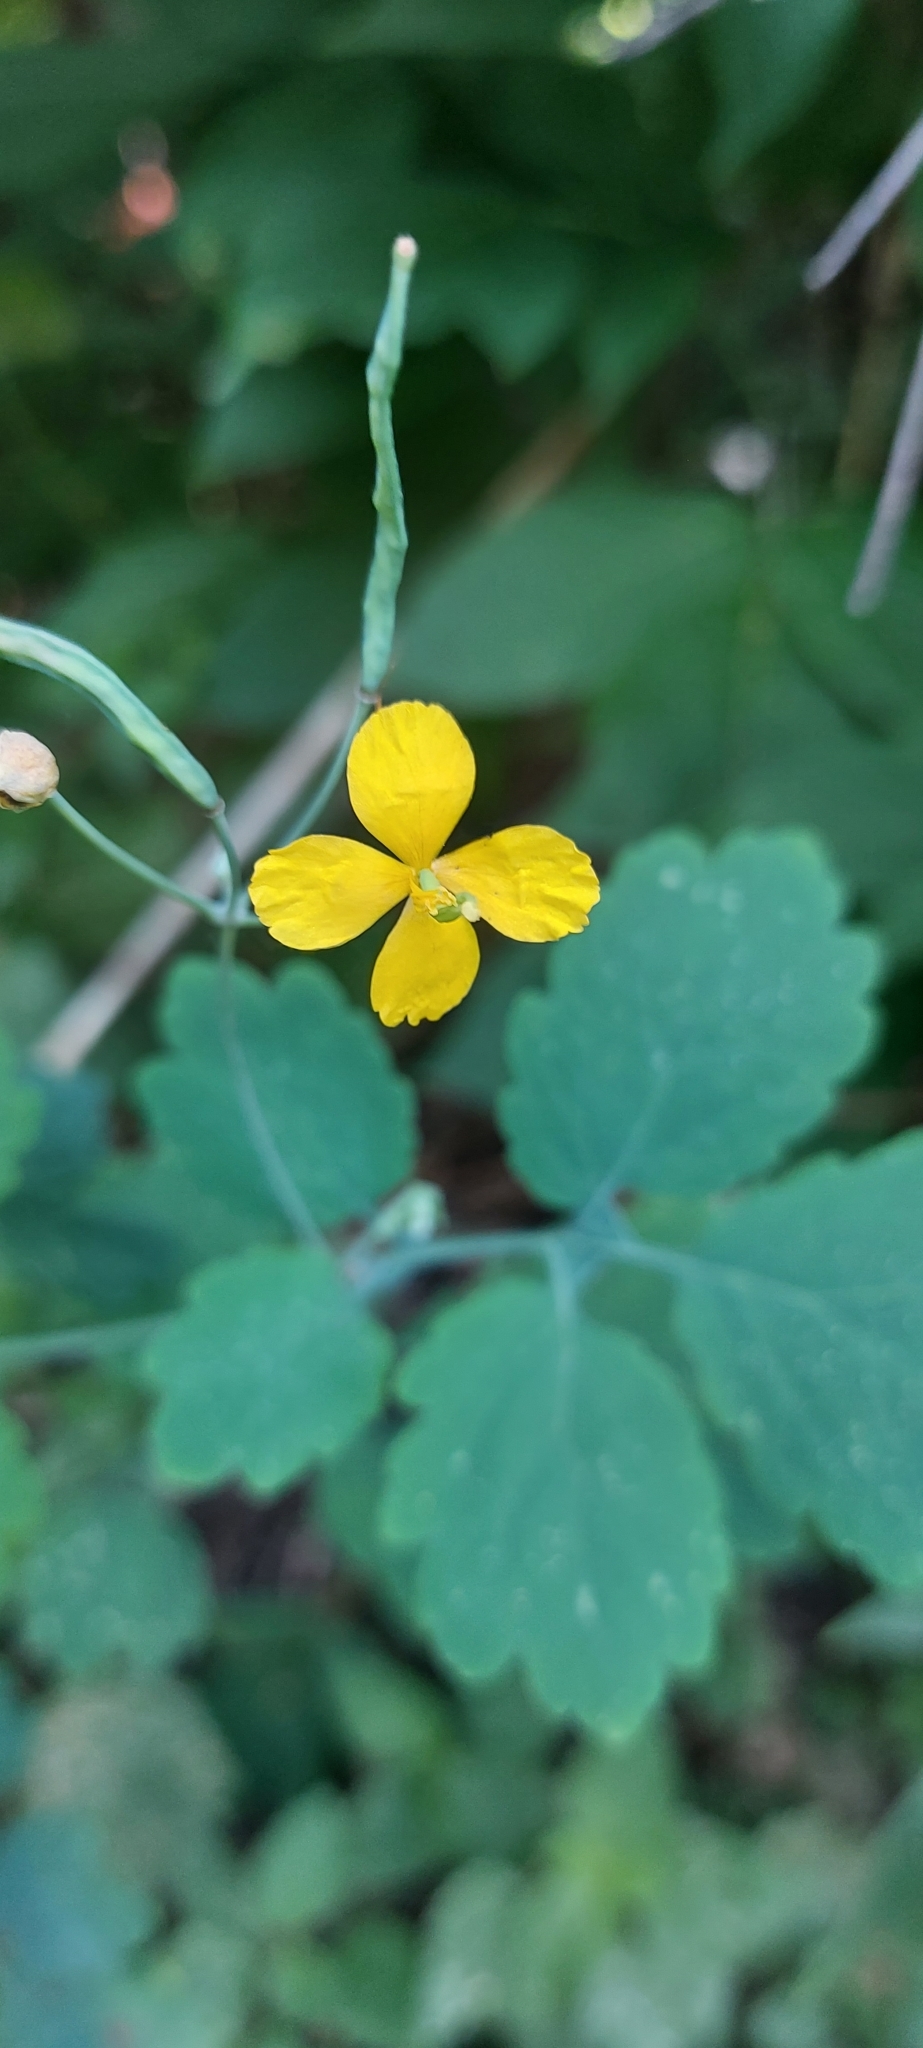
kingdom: Plantae
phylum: Tracheophyta
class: Magnoliopsida
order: Ranunculales
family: Papaveraceae
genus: Chelidonium
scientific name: Chelidonium majus
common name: Greater celandine
